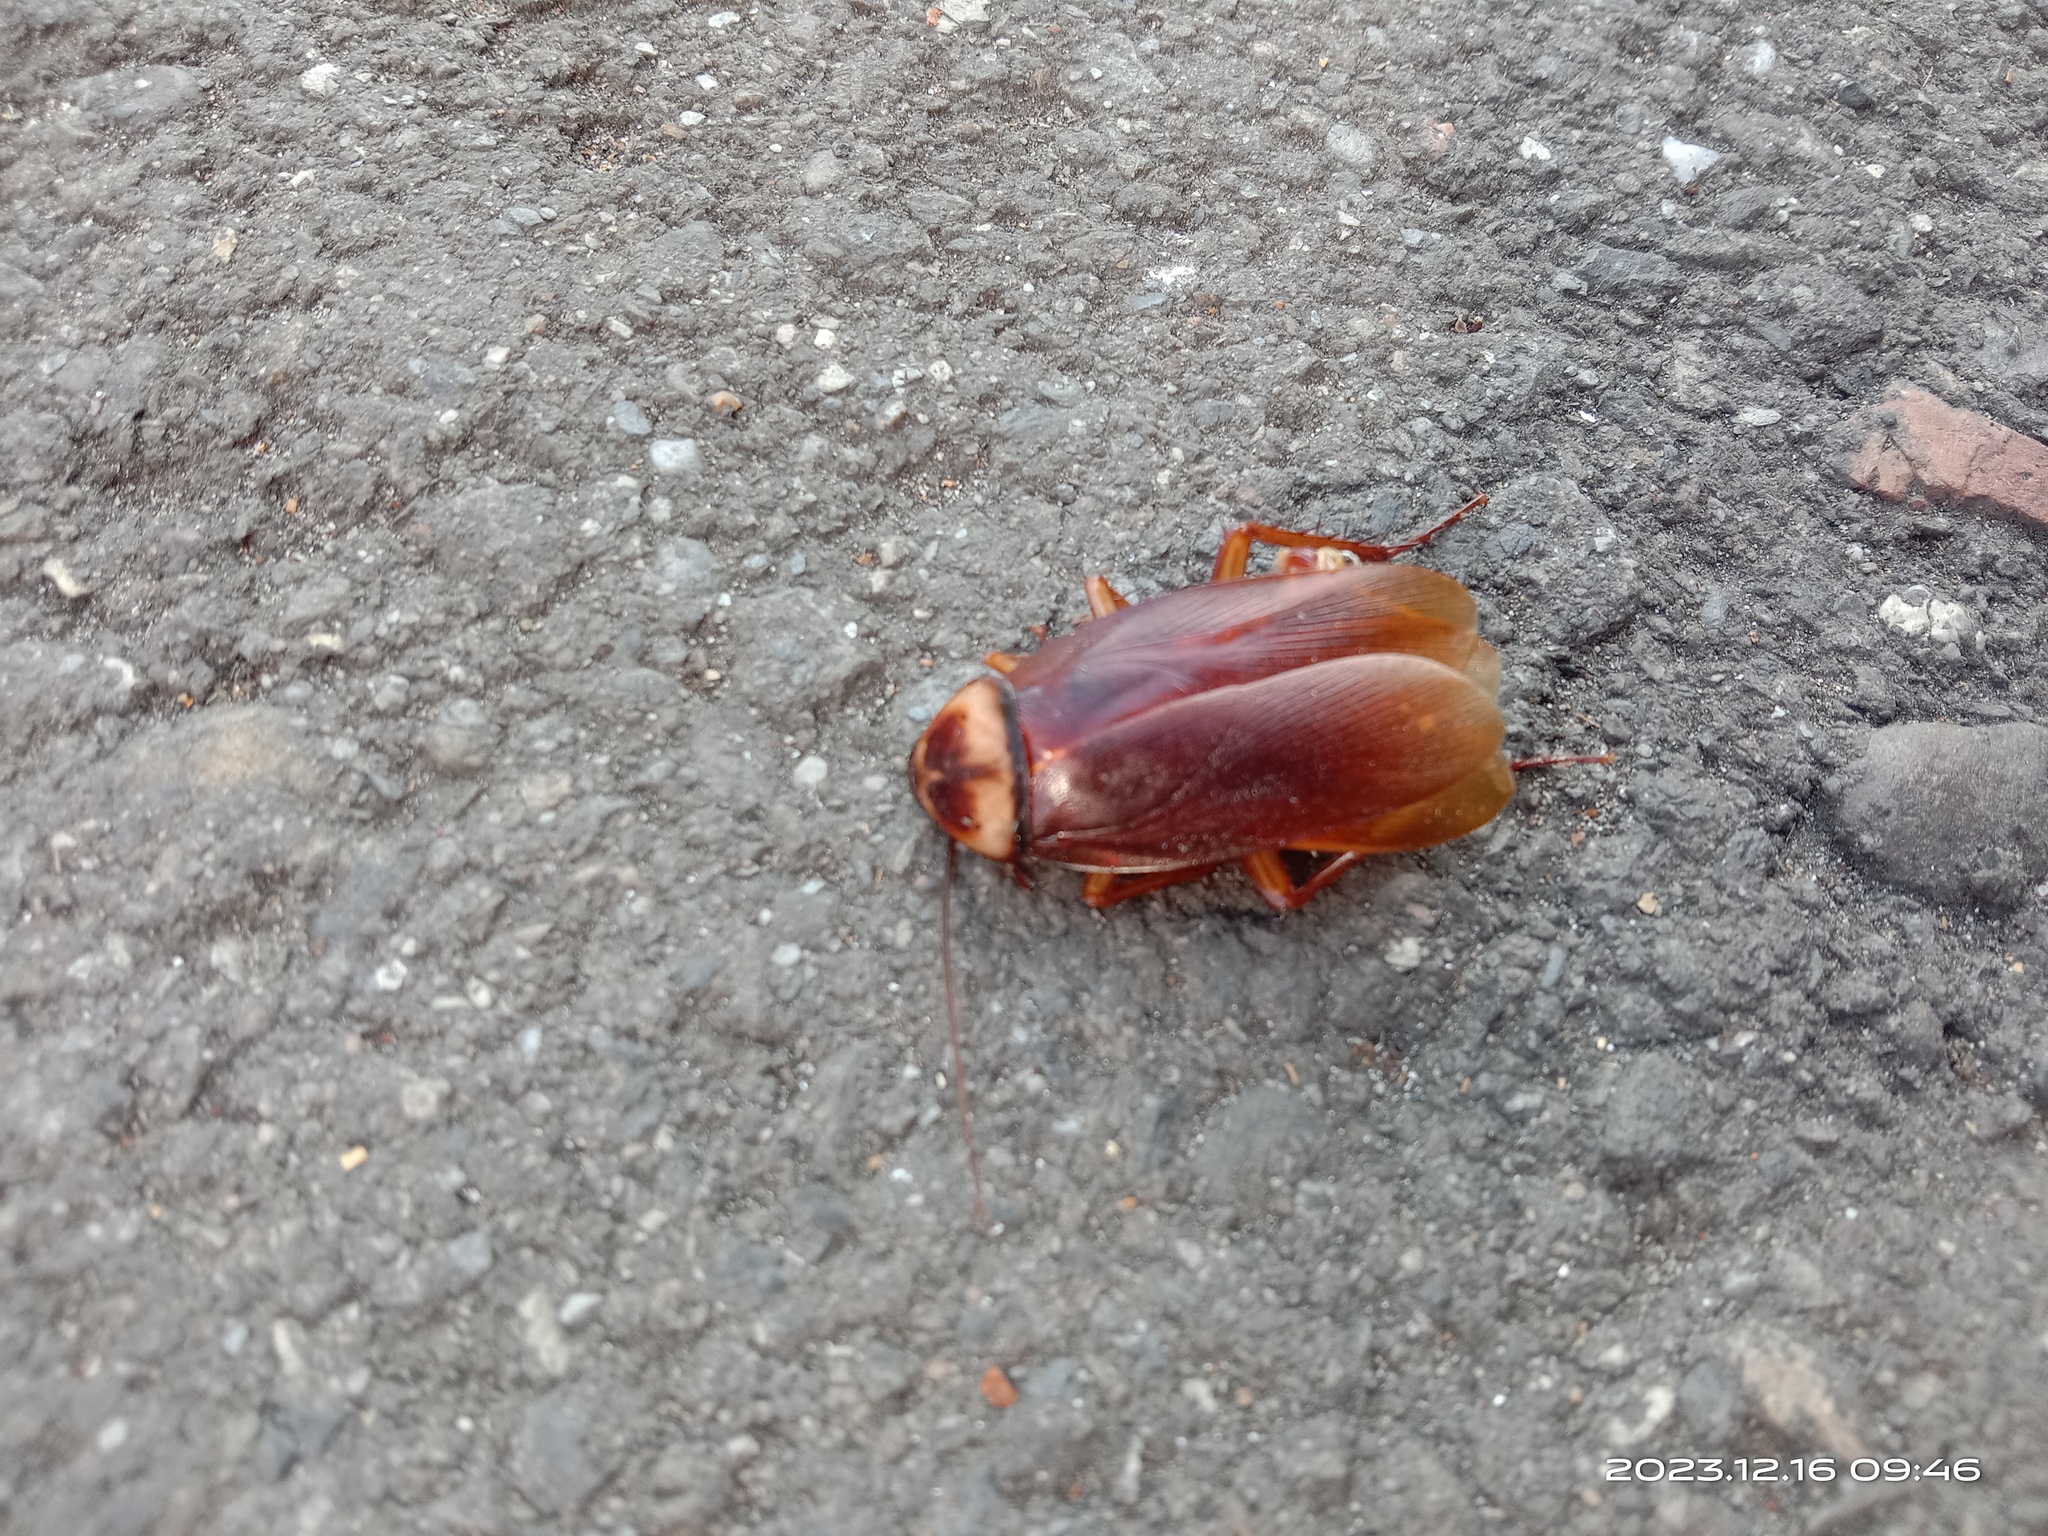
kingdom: Animalia
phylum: Arthropoda
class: Insecta
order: Blattodea
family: Blattidae
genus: Periplaneta
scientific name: Periplaneta americana
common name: American cockroach
